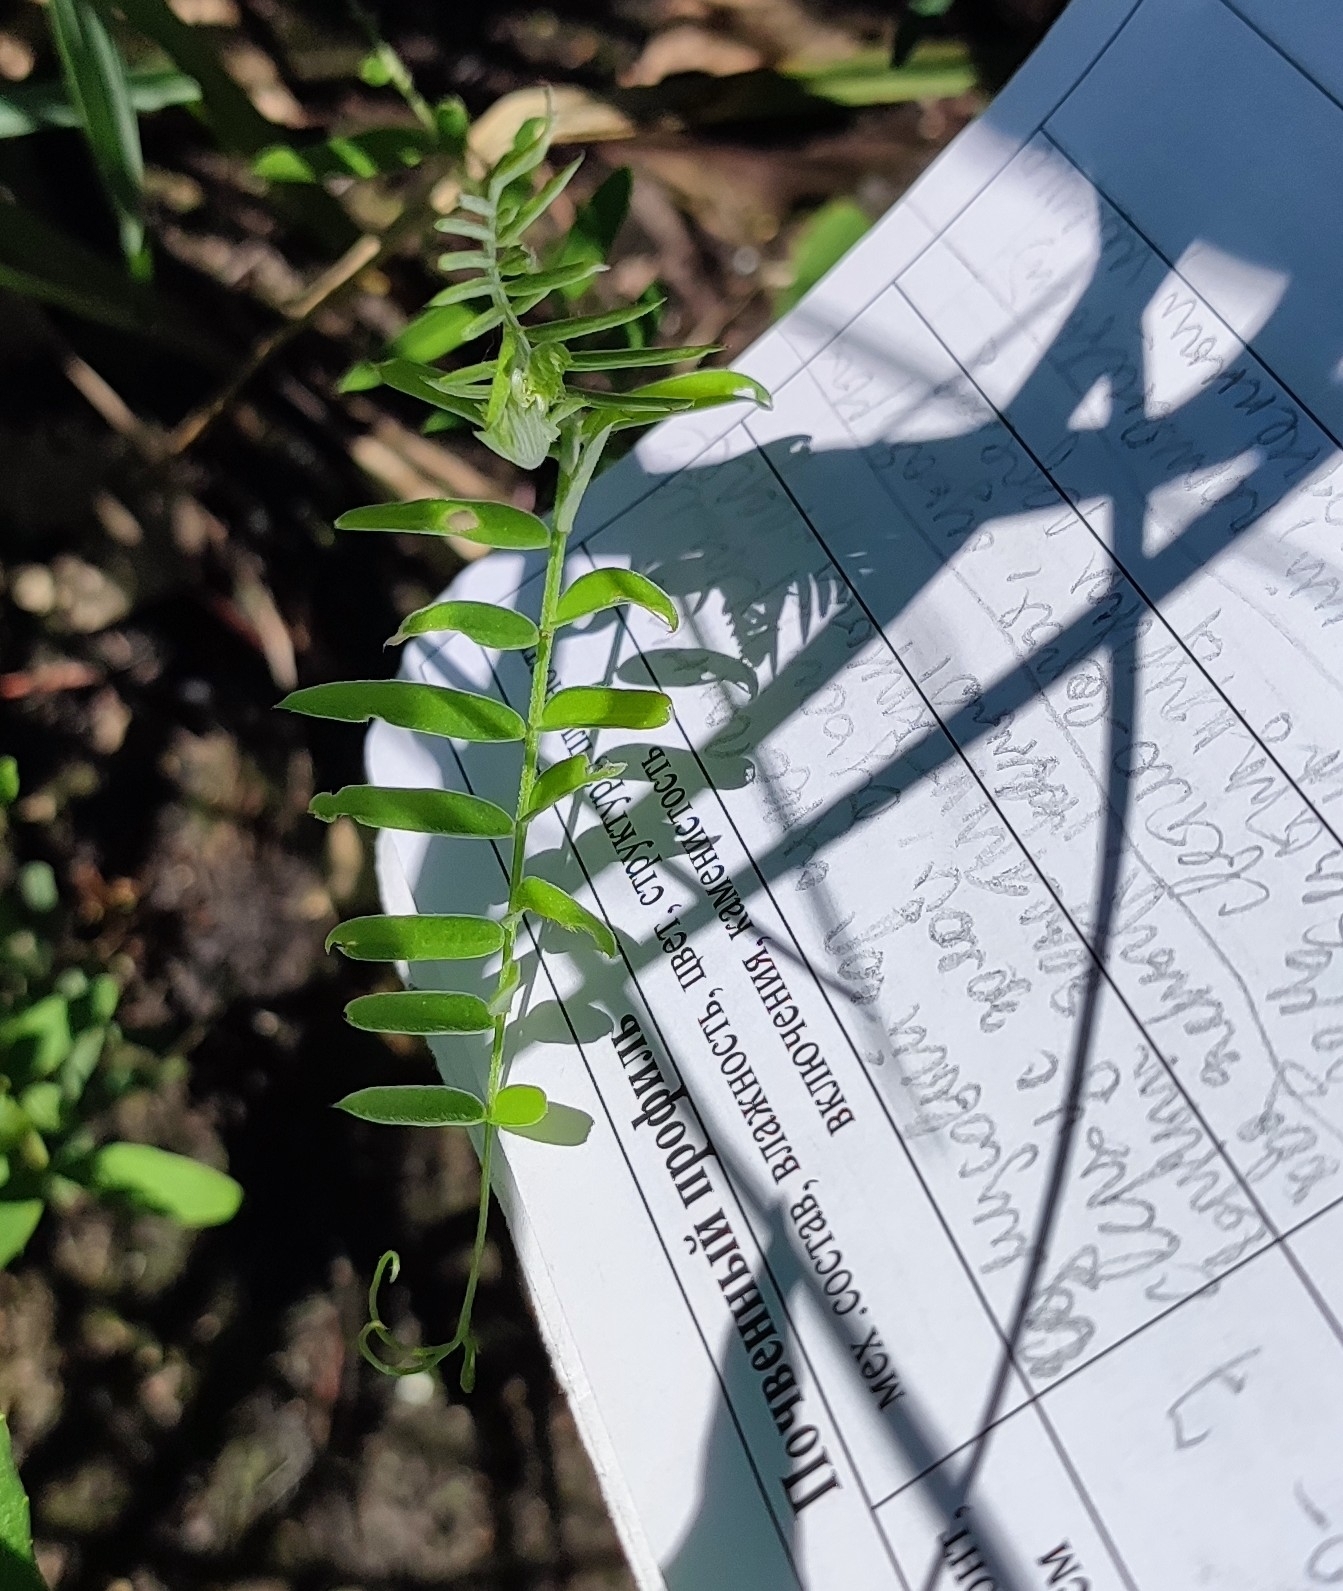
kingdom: Plantae
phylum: Tracheophyta
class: Magnoliopsida
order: Fabales
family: Fabaceae
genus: Vicia
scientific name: Vicia cracca
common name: Bird vetch
